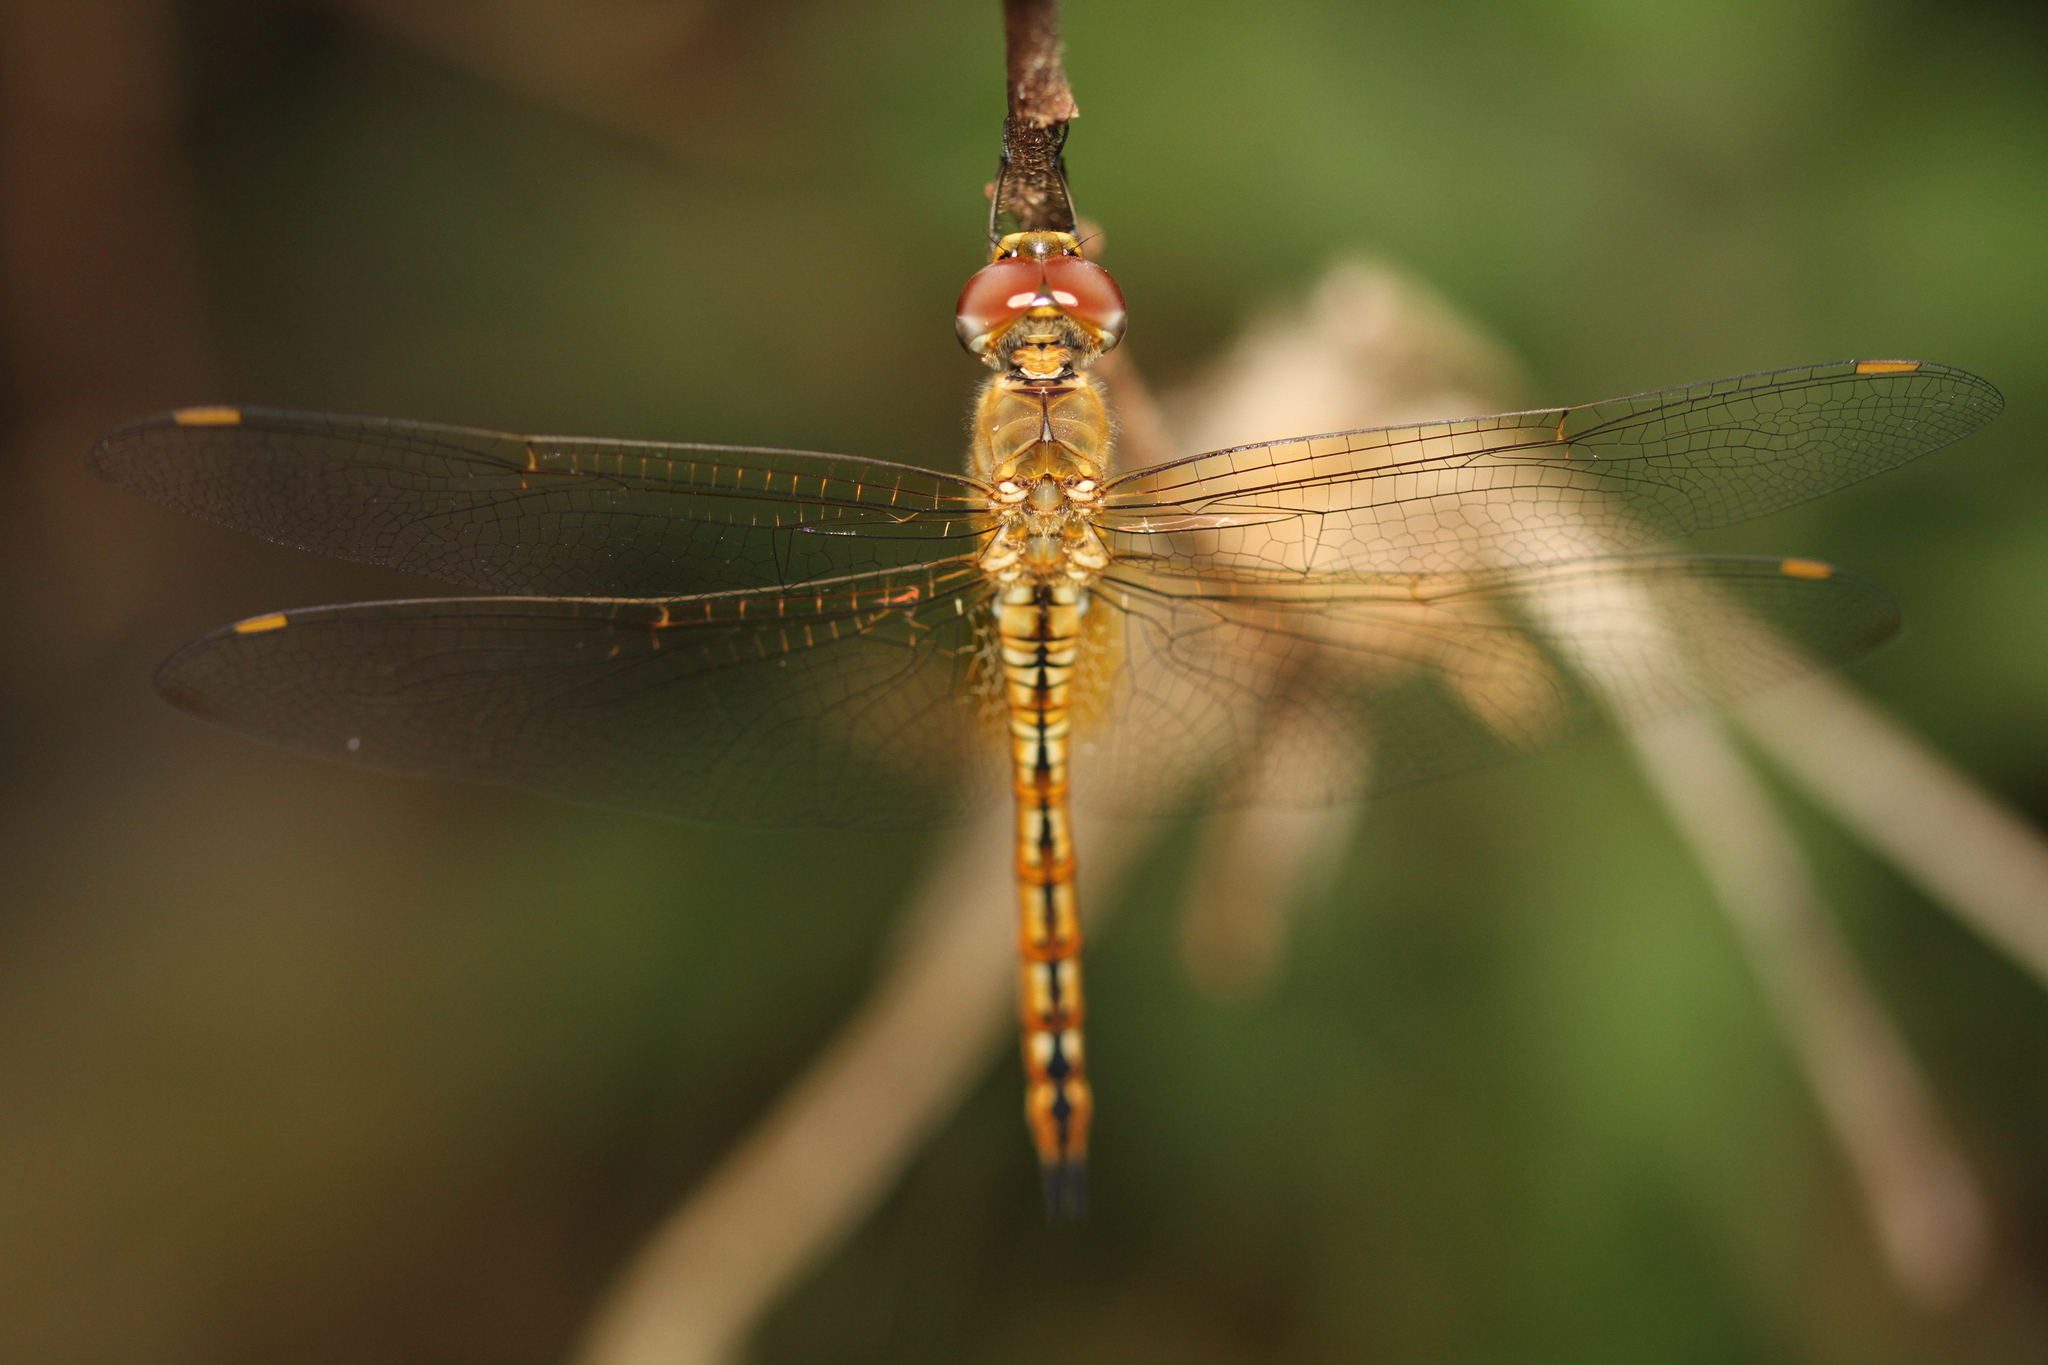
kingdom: Animalia
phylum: Arthropoda
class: Insecta
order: Odonata
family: Libellulidae
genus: Pantala
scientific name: Pantala flavescens
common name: Wandering glider
